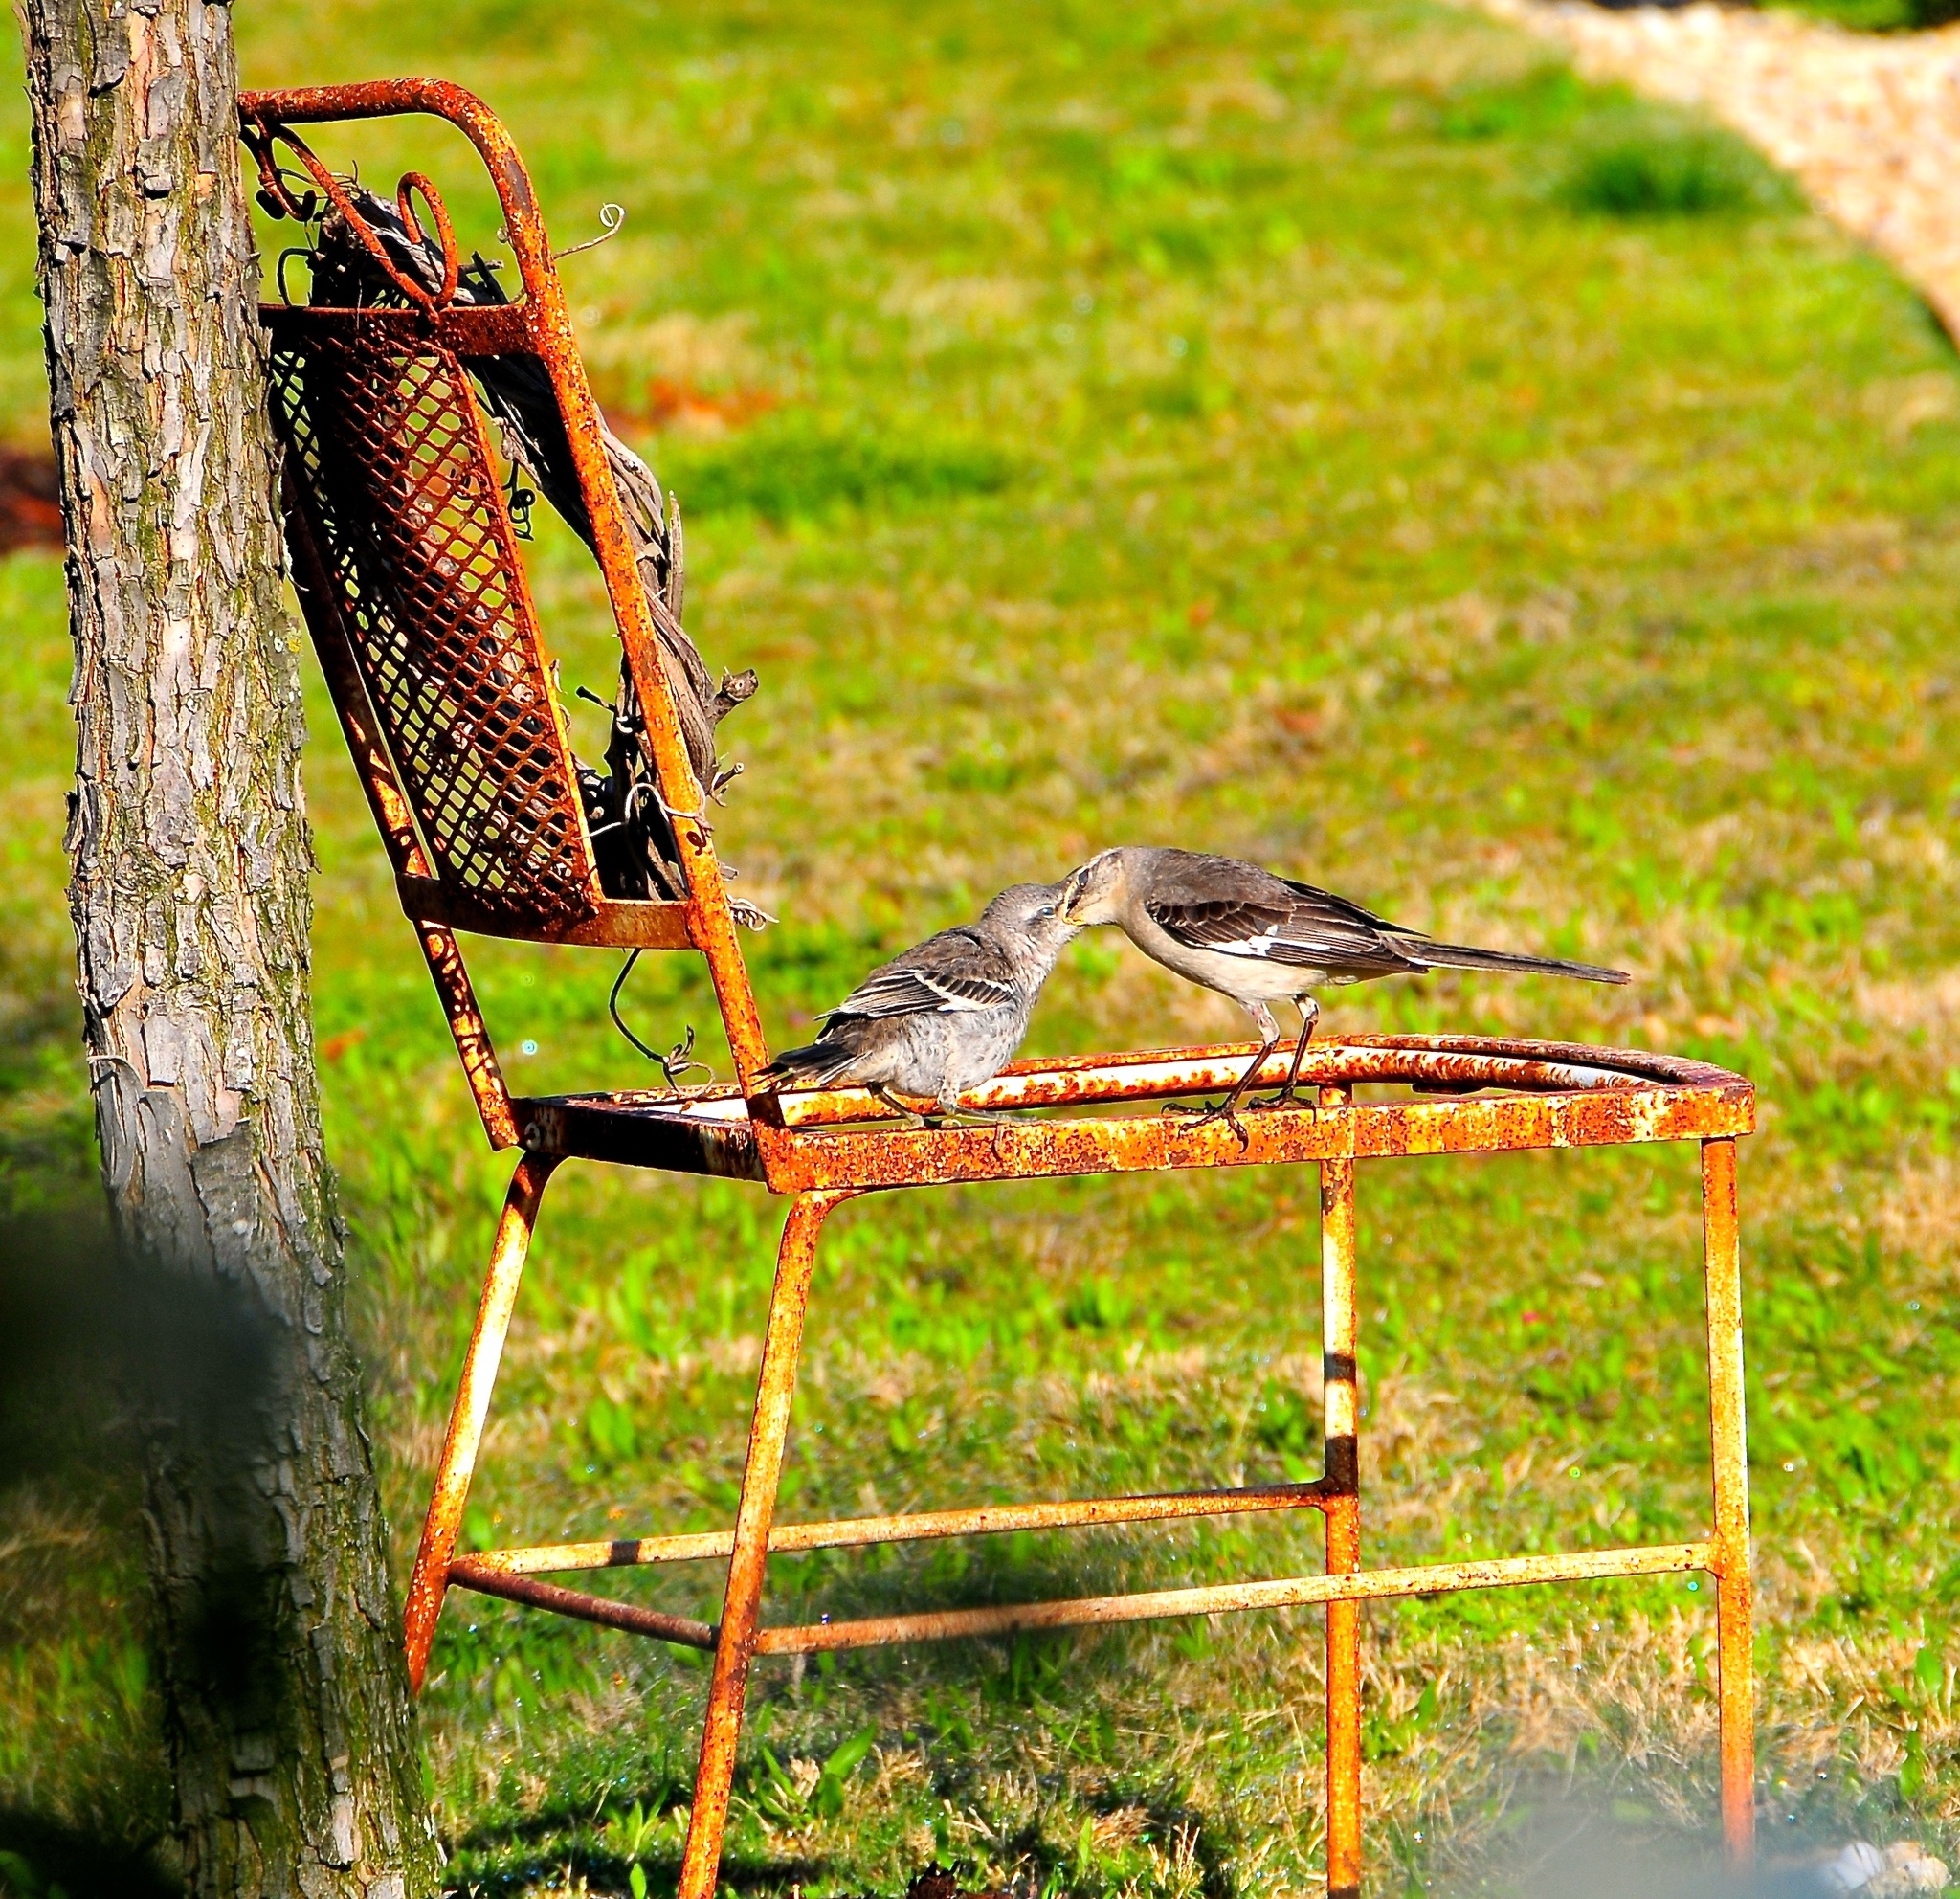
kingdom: Animalia
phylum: Chordata
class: Aves
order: Passeriformes
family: Mimidae
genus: Mimus
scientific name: Mimus polyglottos
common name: Northern mockingbird
